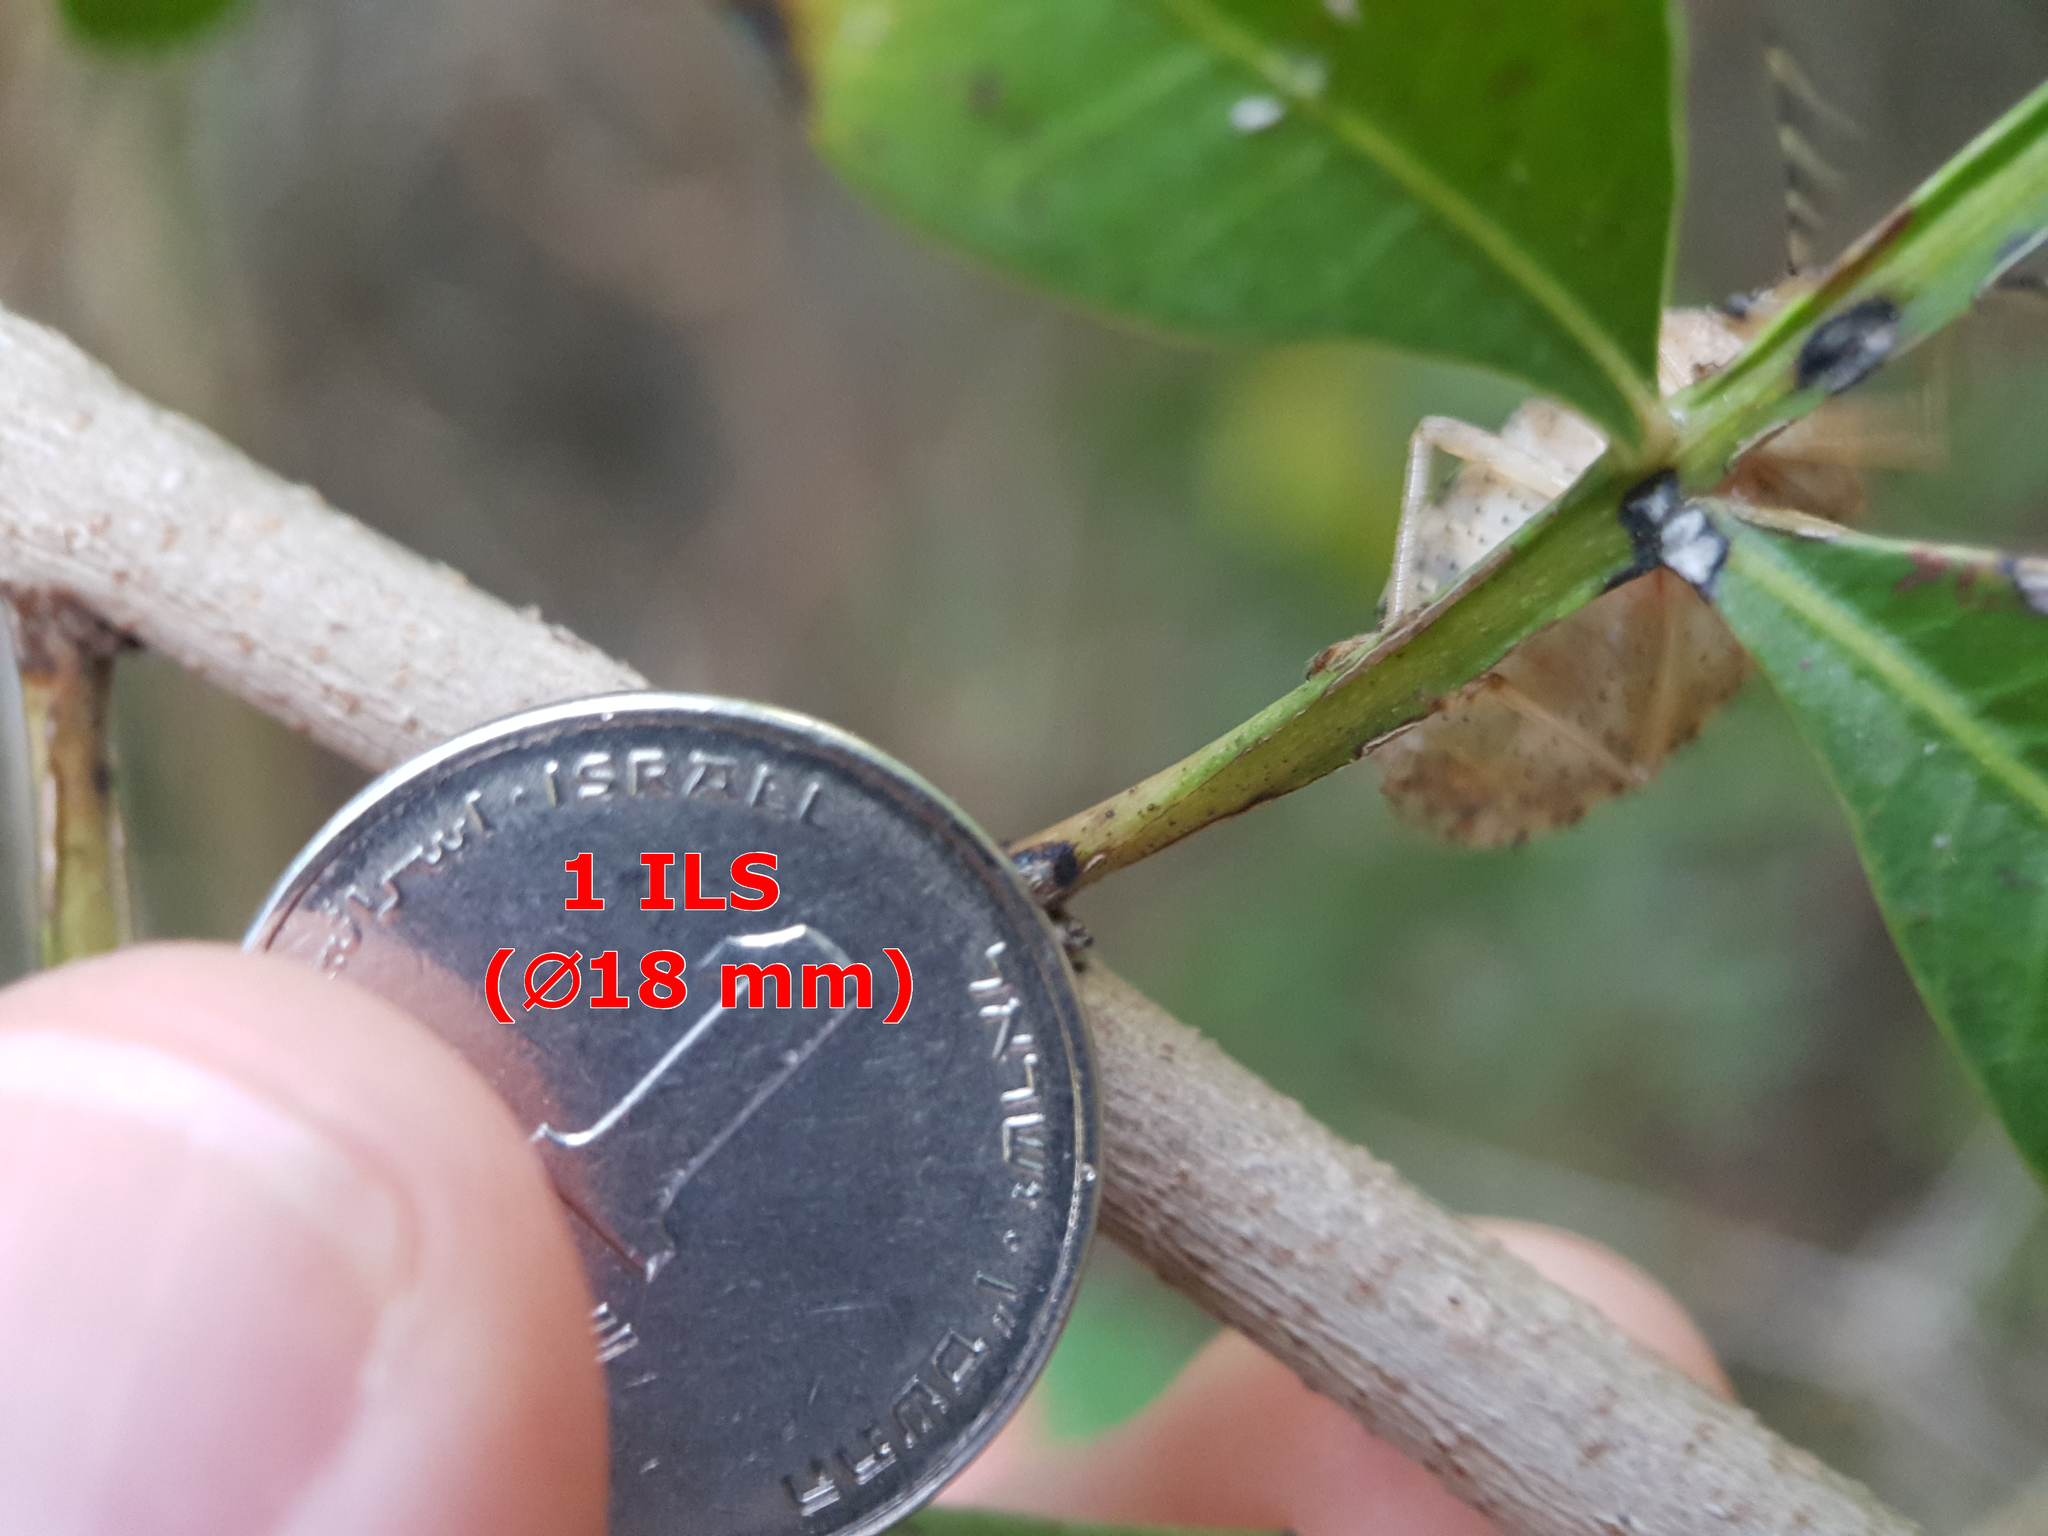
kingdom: Animalia
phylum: Arthropoda
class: Insecta
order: Hemiptera
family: Coreidae
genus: Gonocerus
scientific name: Gonocerus acuteangulatus
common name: Box bug
